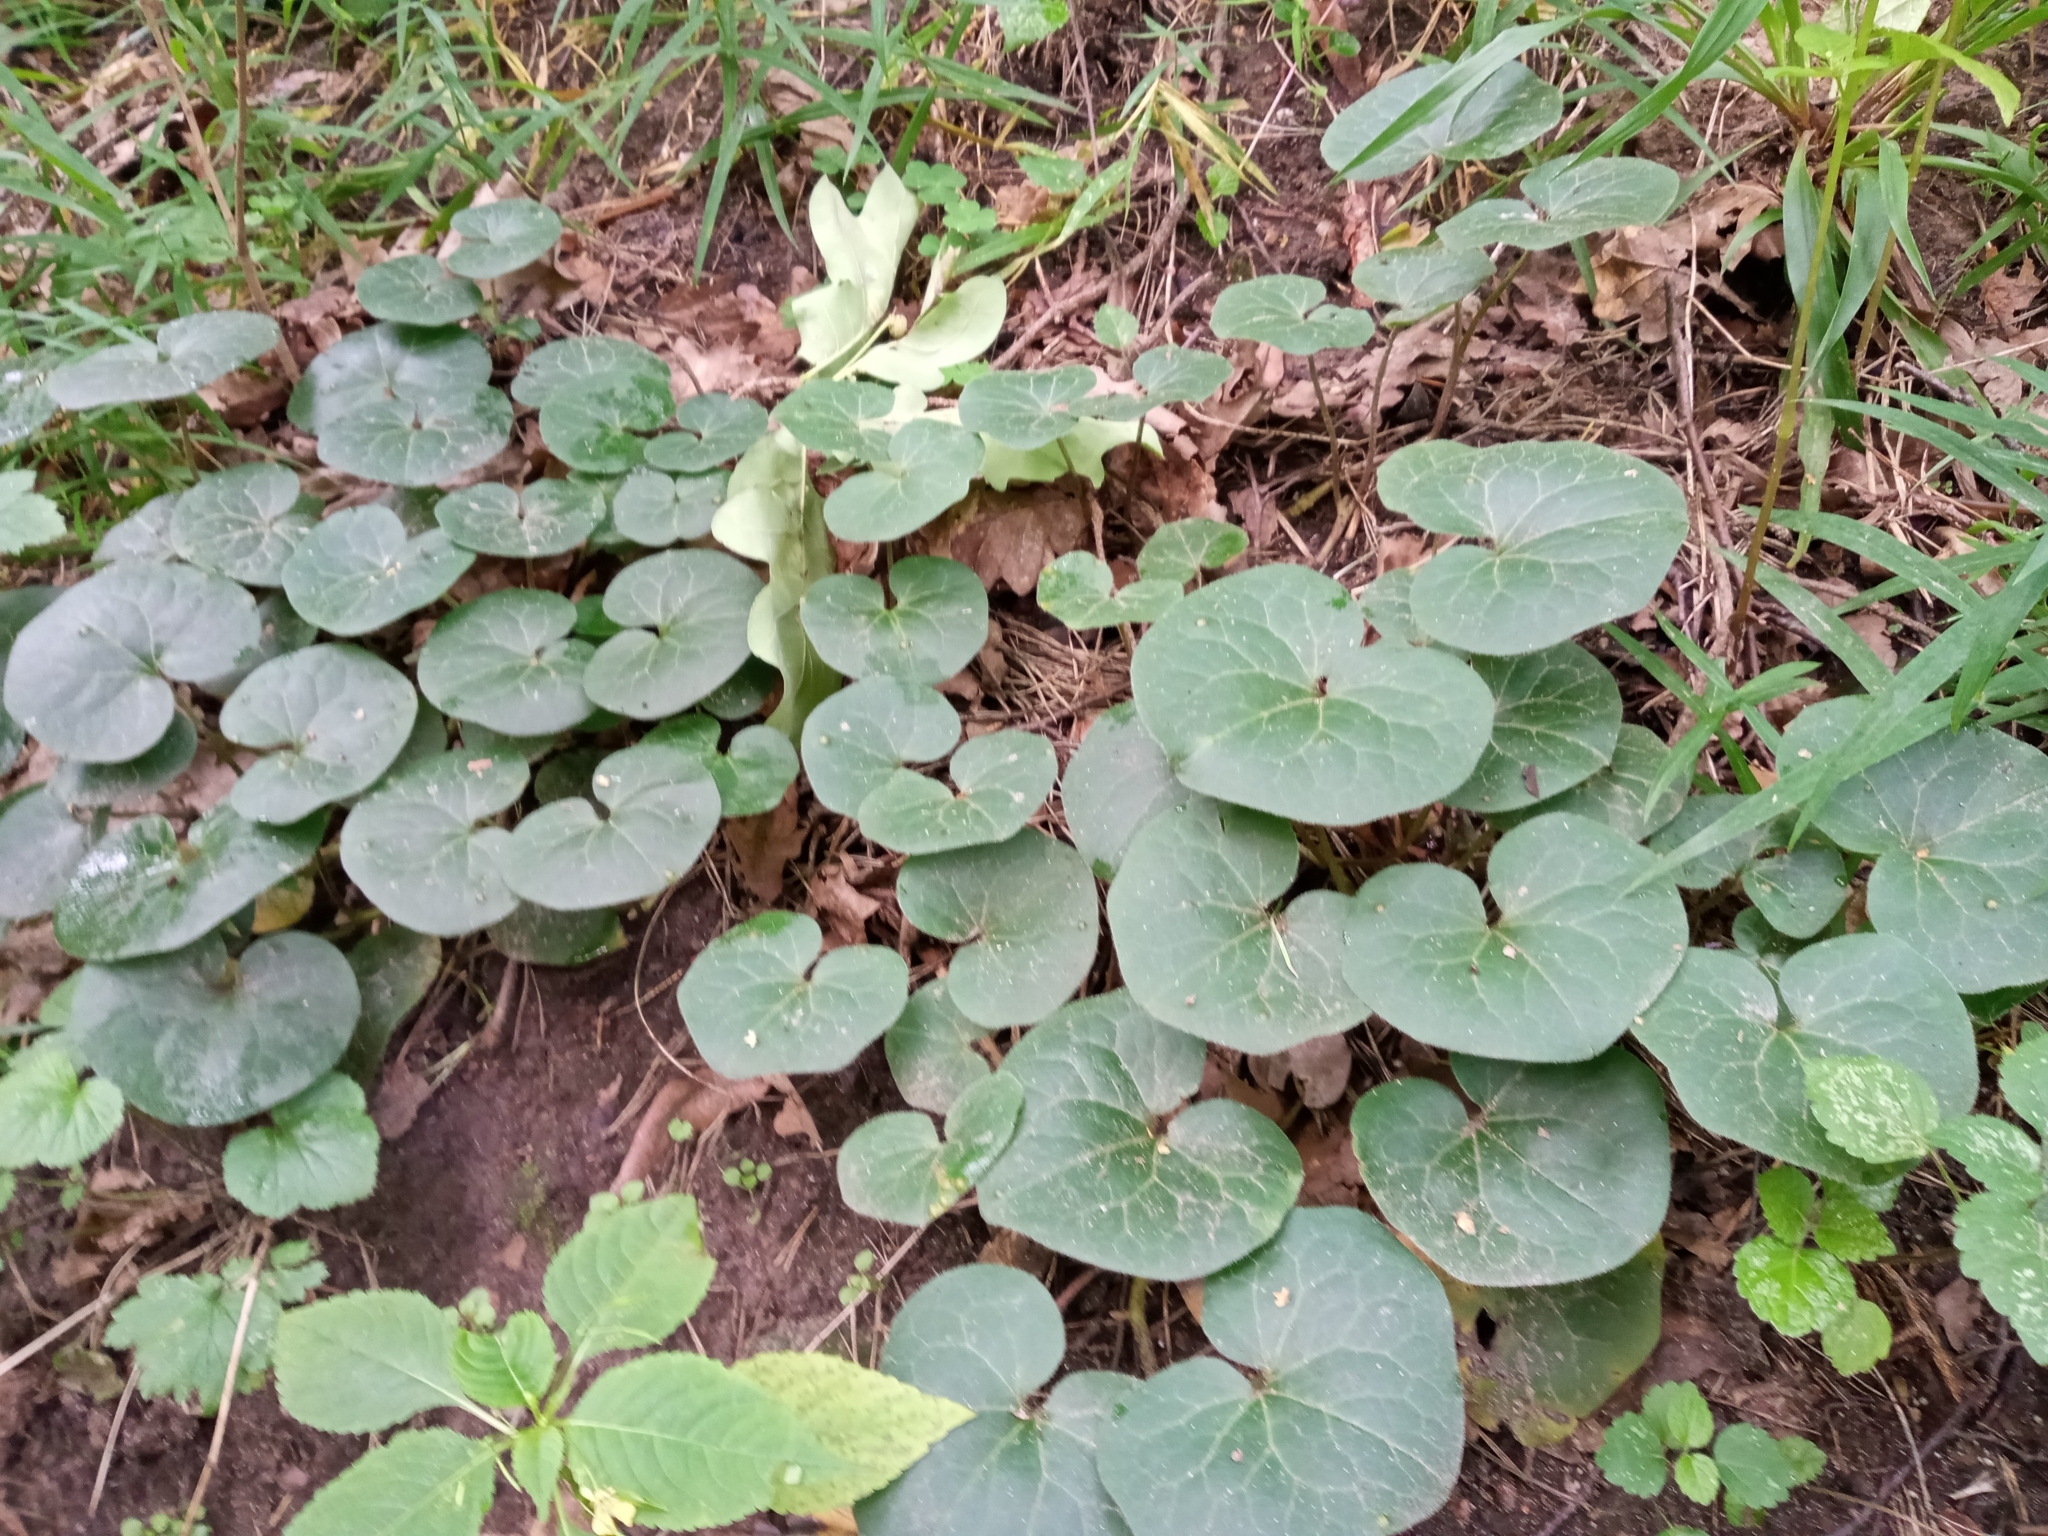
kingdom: Plantae
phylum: Tracheophyta
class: Magnoliopsida
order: Piperales
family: Aristolochiaceae
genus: Asarum
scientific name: Asarum europaeum
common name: Asarabacca
